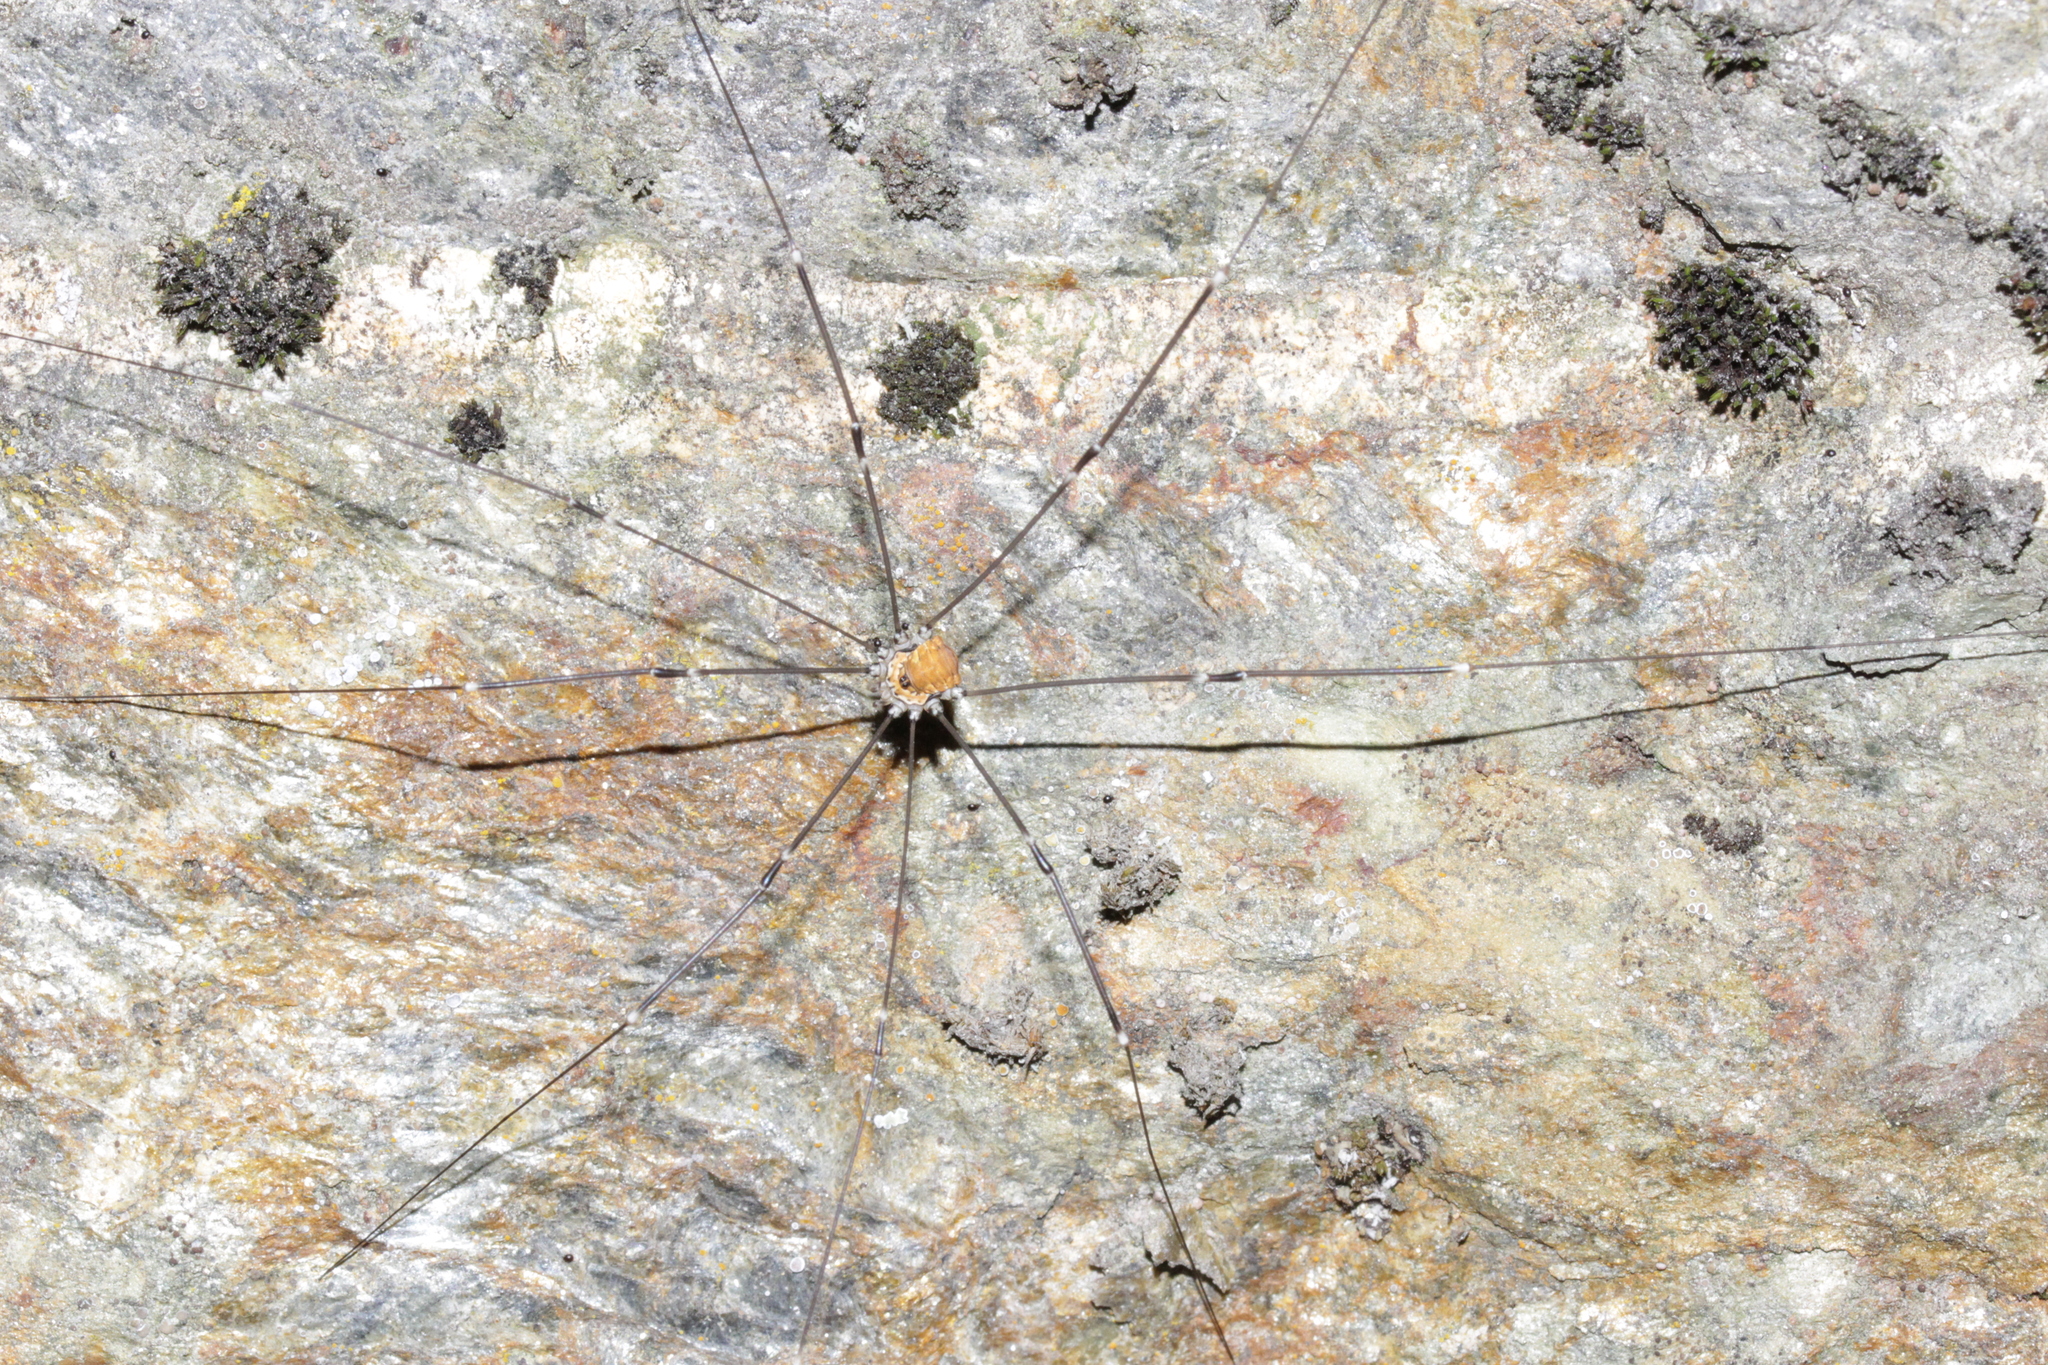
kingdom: Animalia
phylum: Arthropoda
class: Arachnida
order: Opiliones
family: Sclerosomatidae
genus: Leiobunum
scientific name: Leiobunum limbatum
